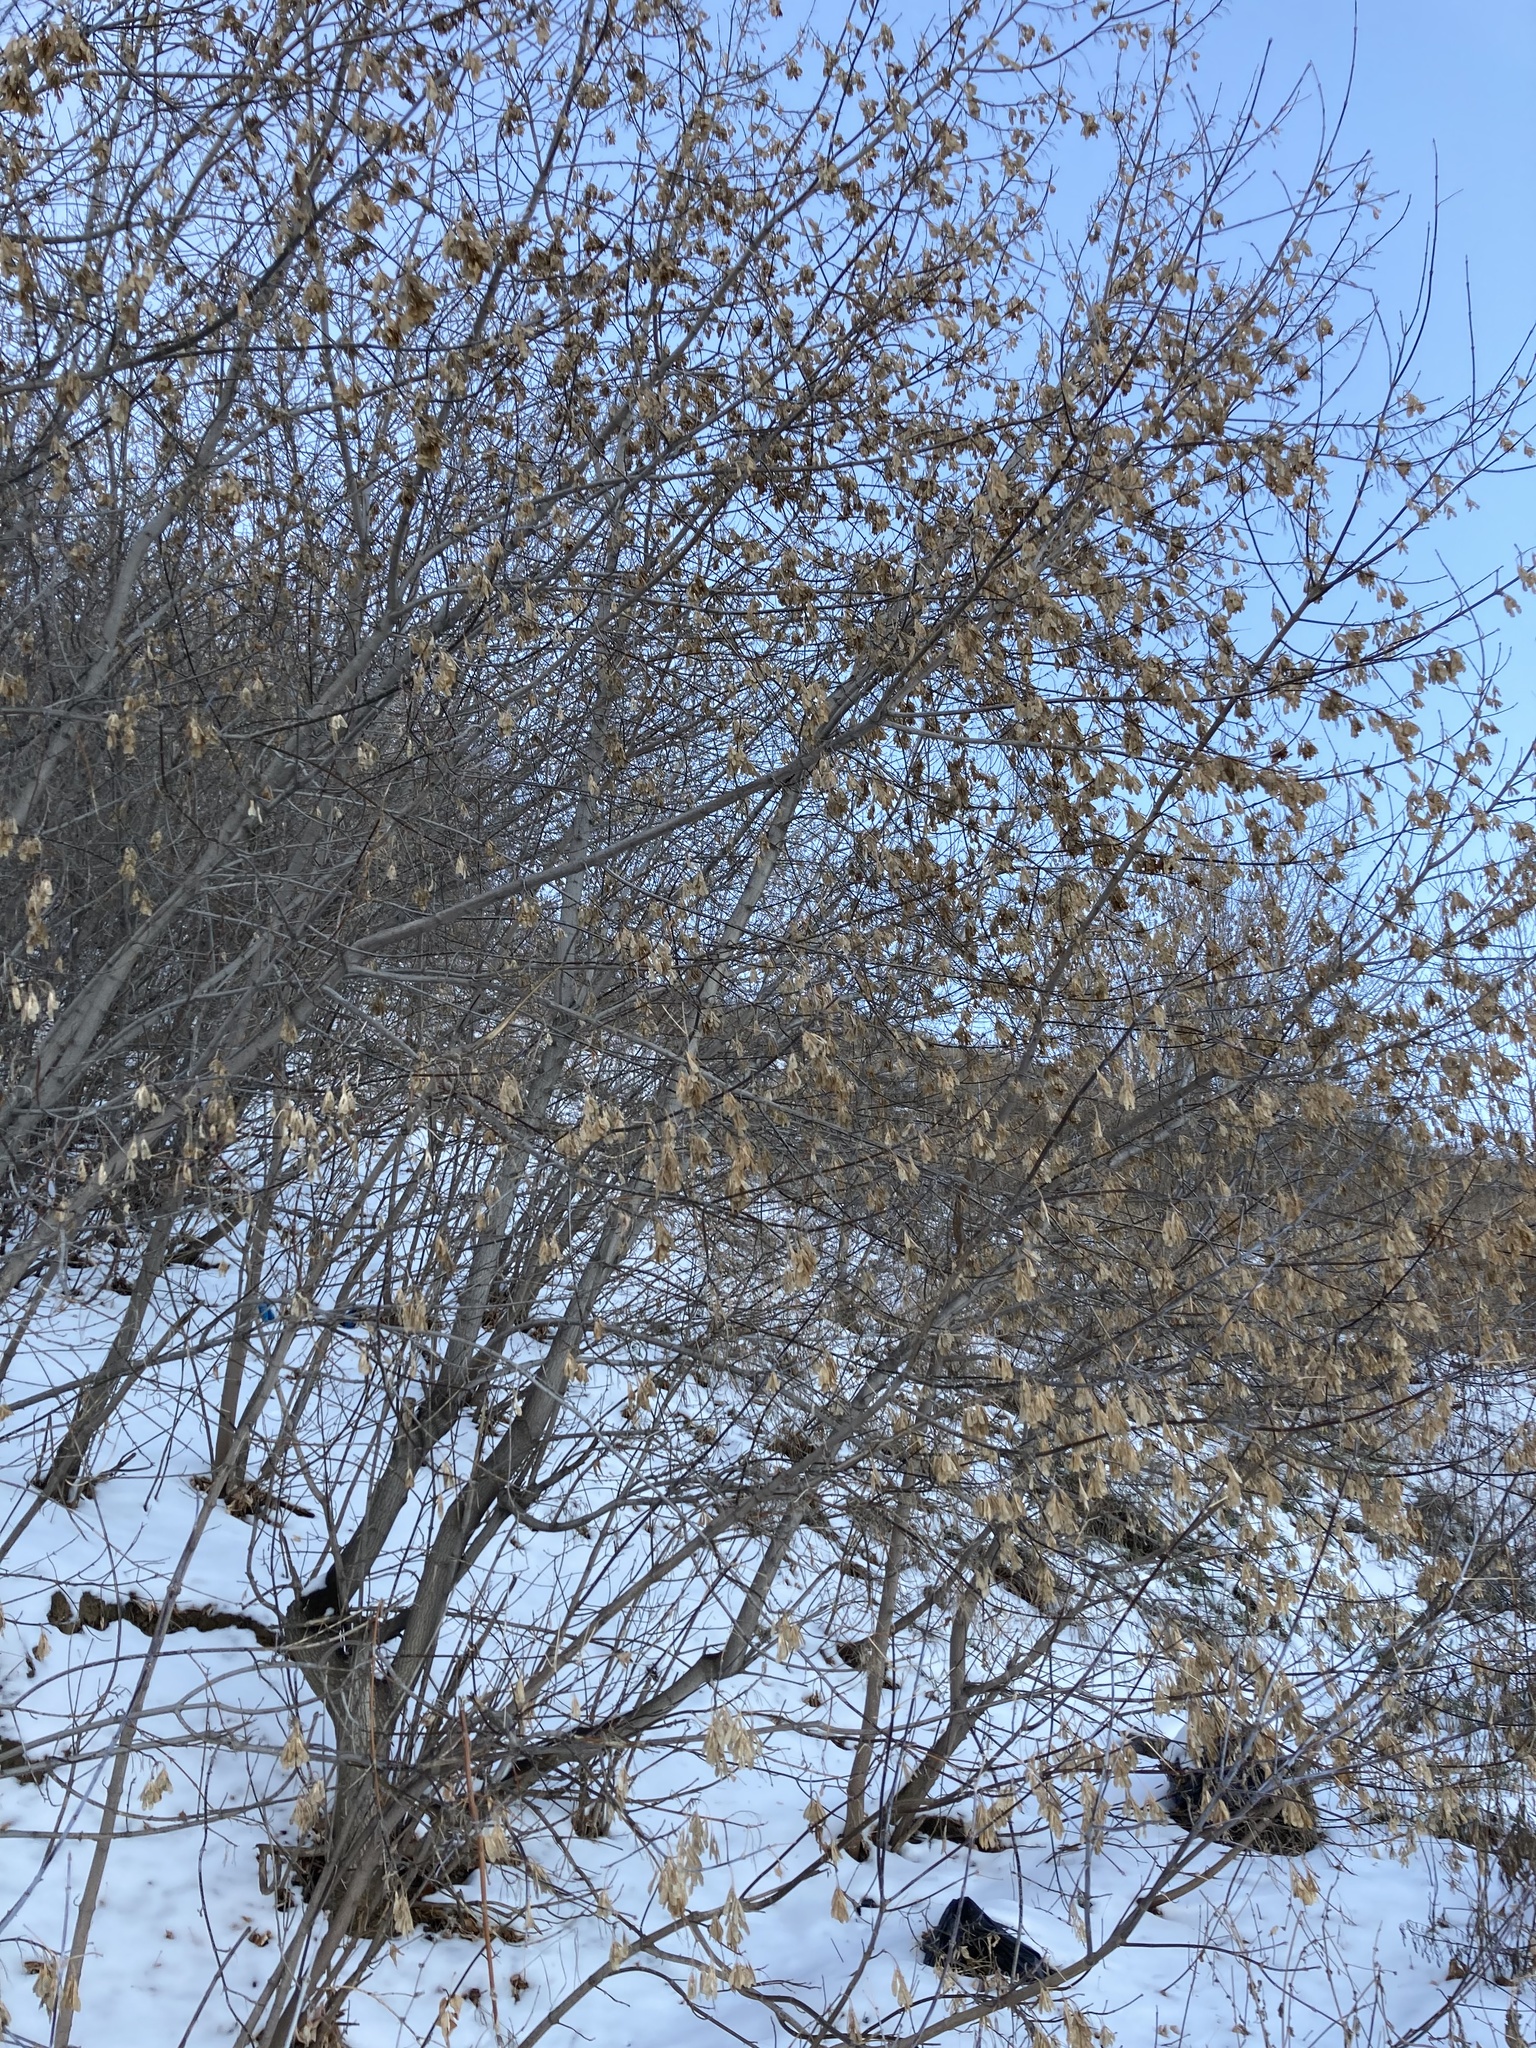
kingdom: Plantae
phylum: Tracheophyta
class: Magnoliopsida
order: Sapindales
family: Sapindaceae
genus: Acer
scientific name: Acer negundo
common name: Ashleaf maple
